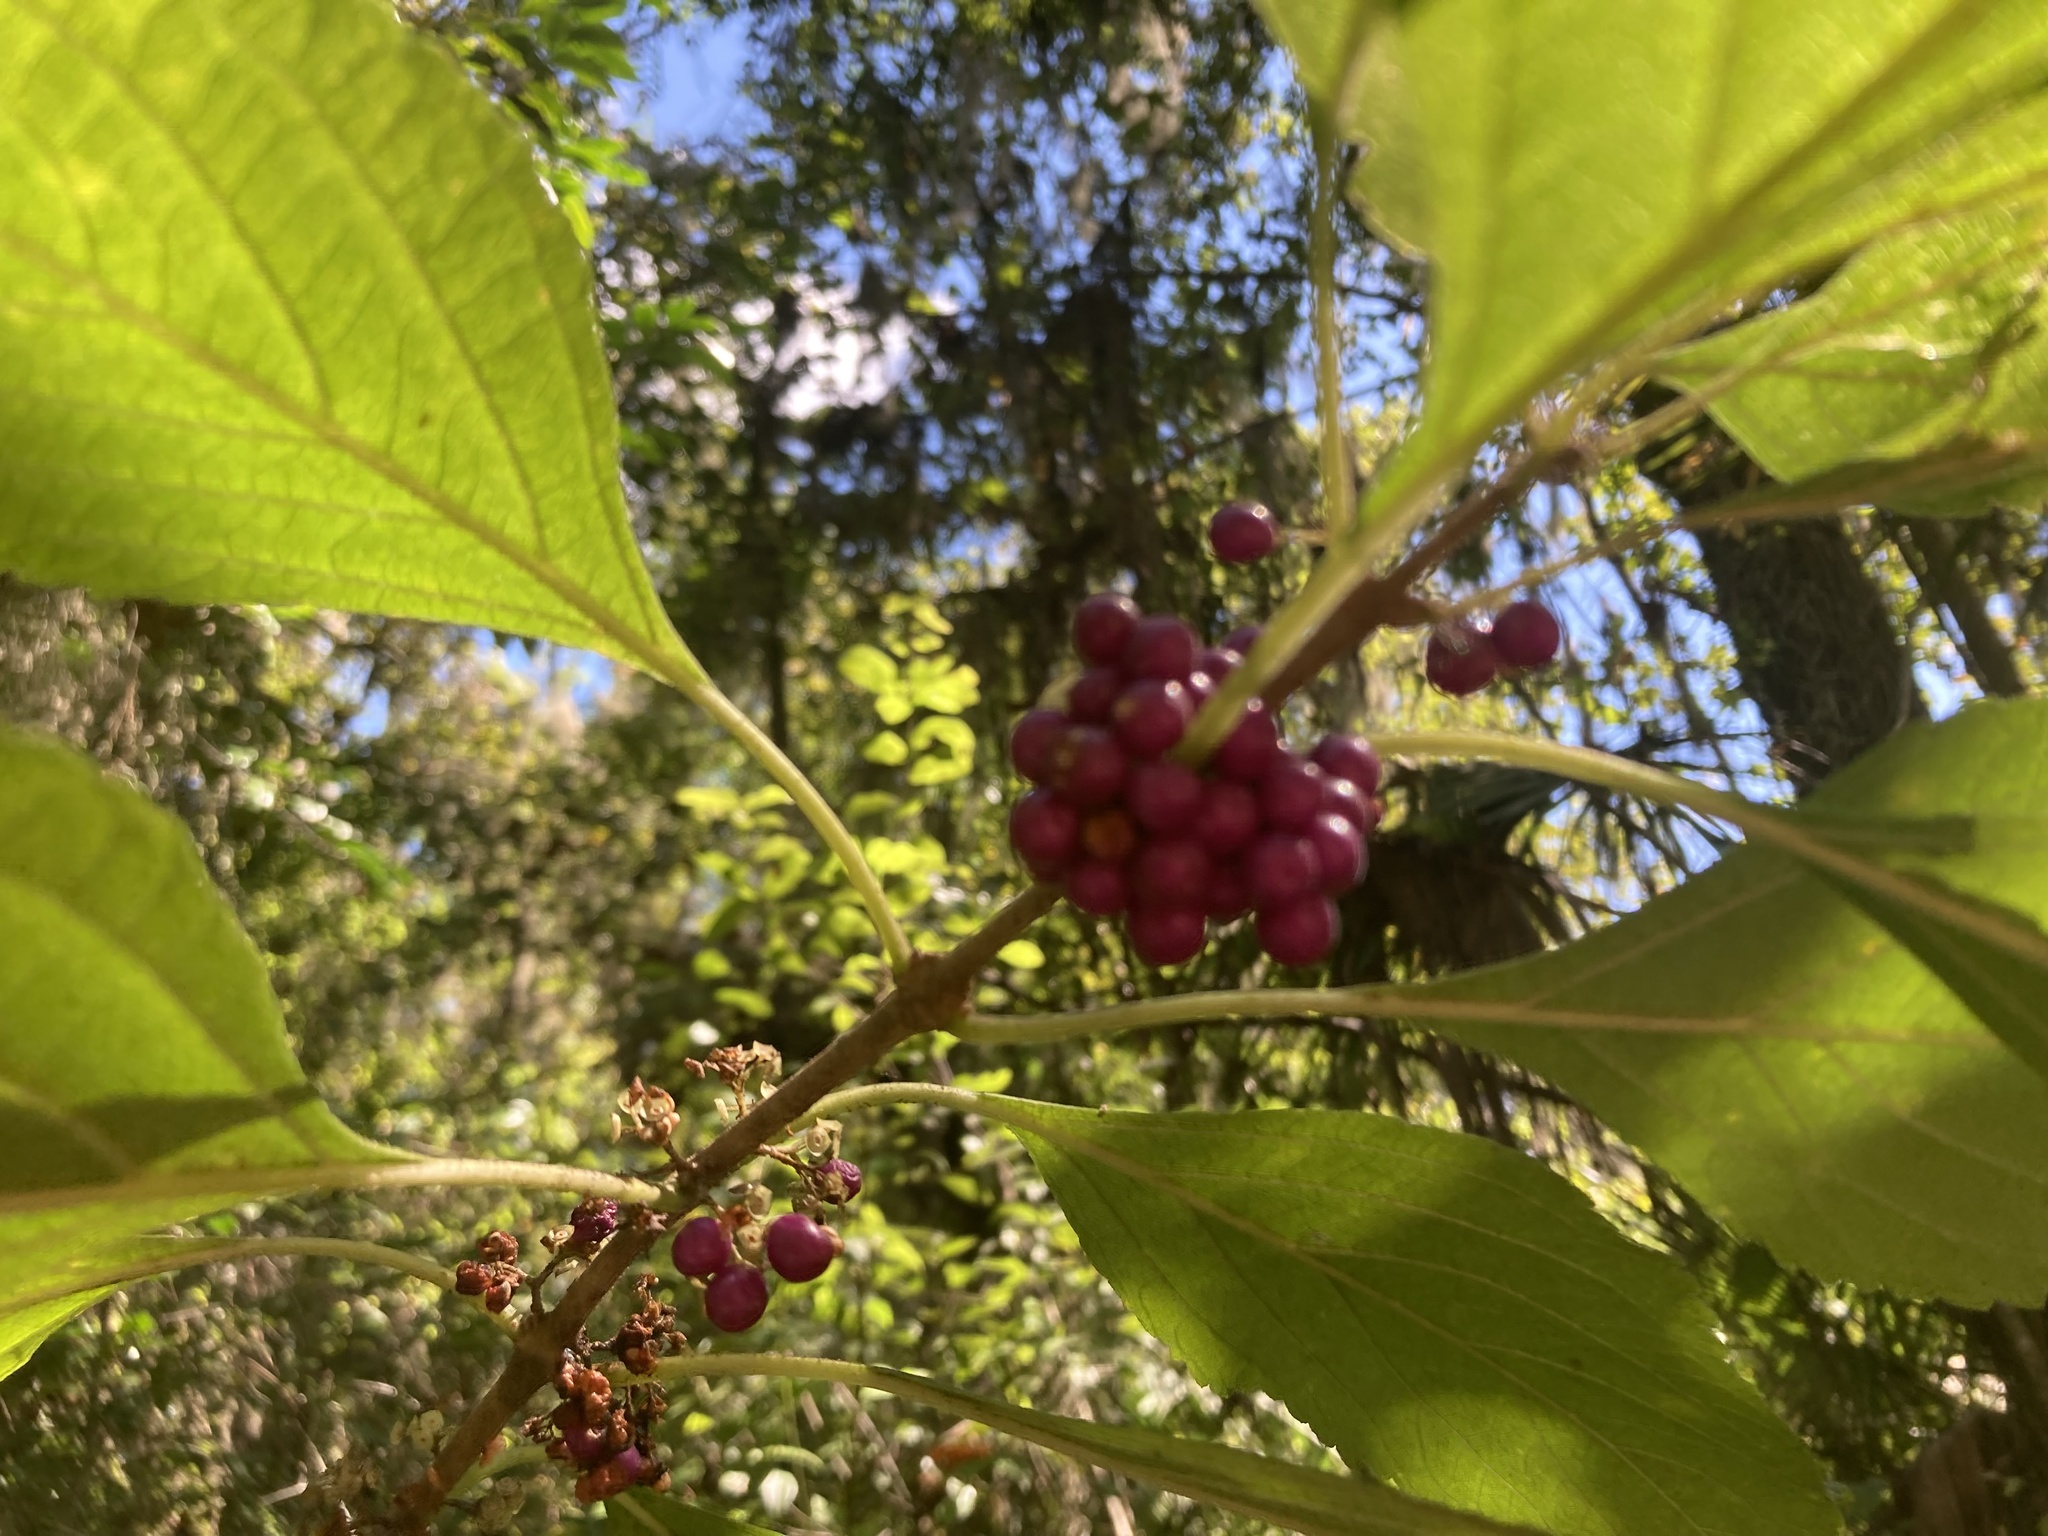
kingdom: Plantae
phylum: Tracheophyta
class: Magnoliopsida
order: Lamiales
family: Lamiaceae
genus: Callicarpa
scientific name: Callicarpa americana
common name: American beautyberry
